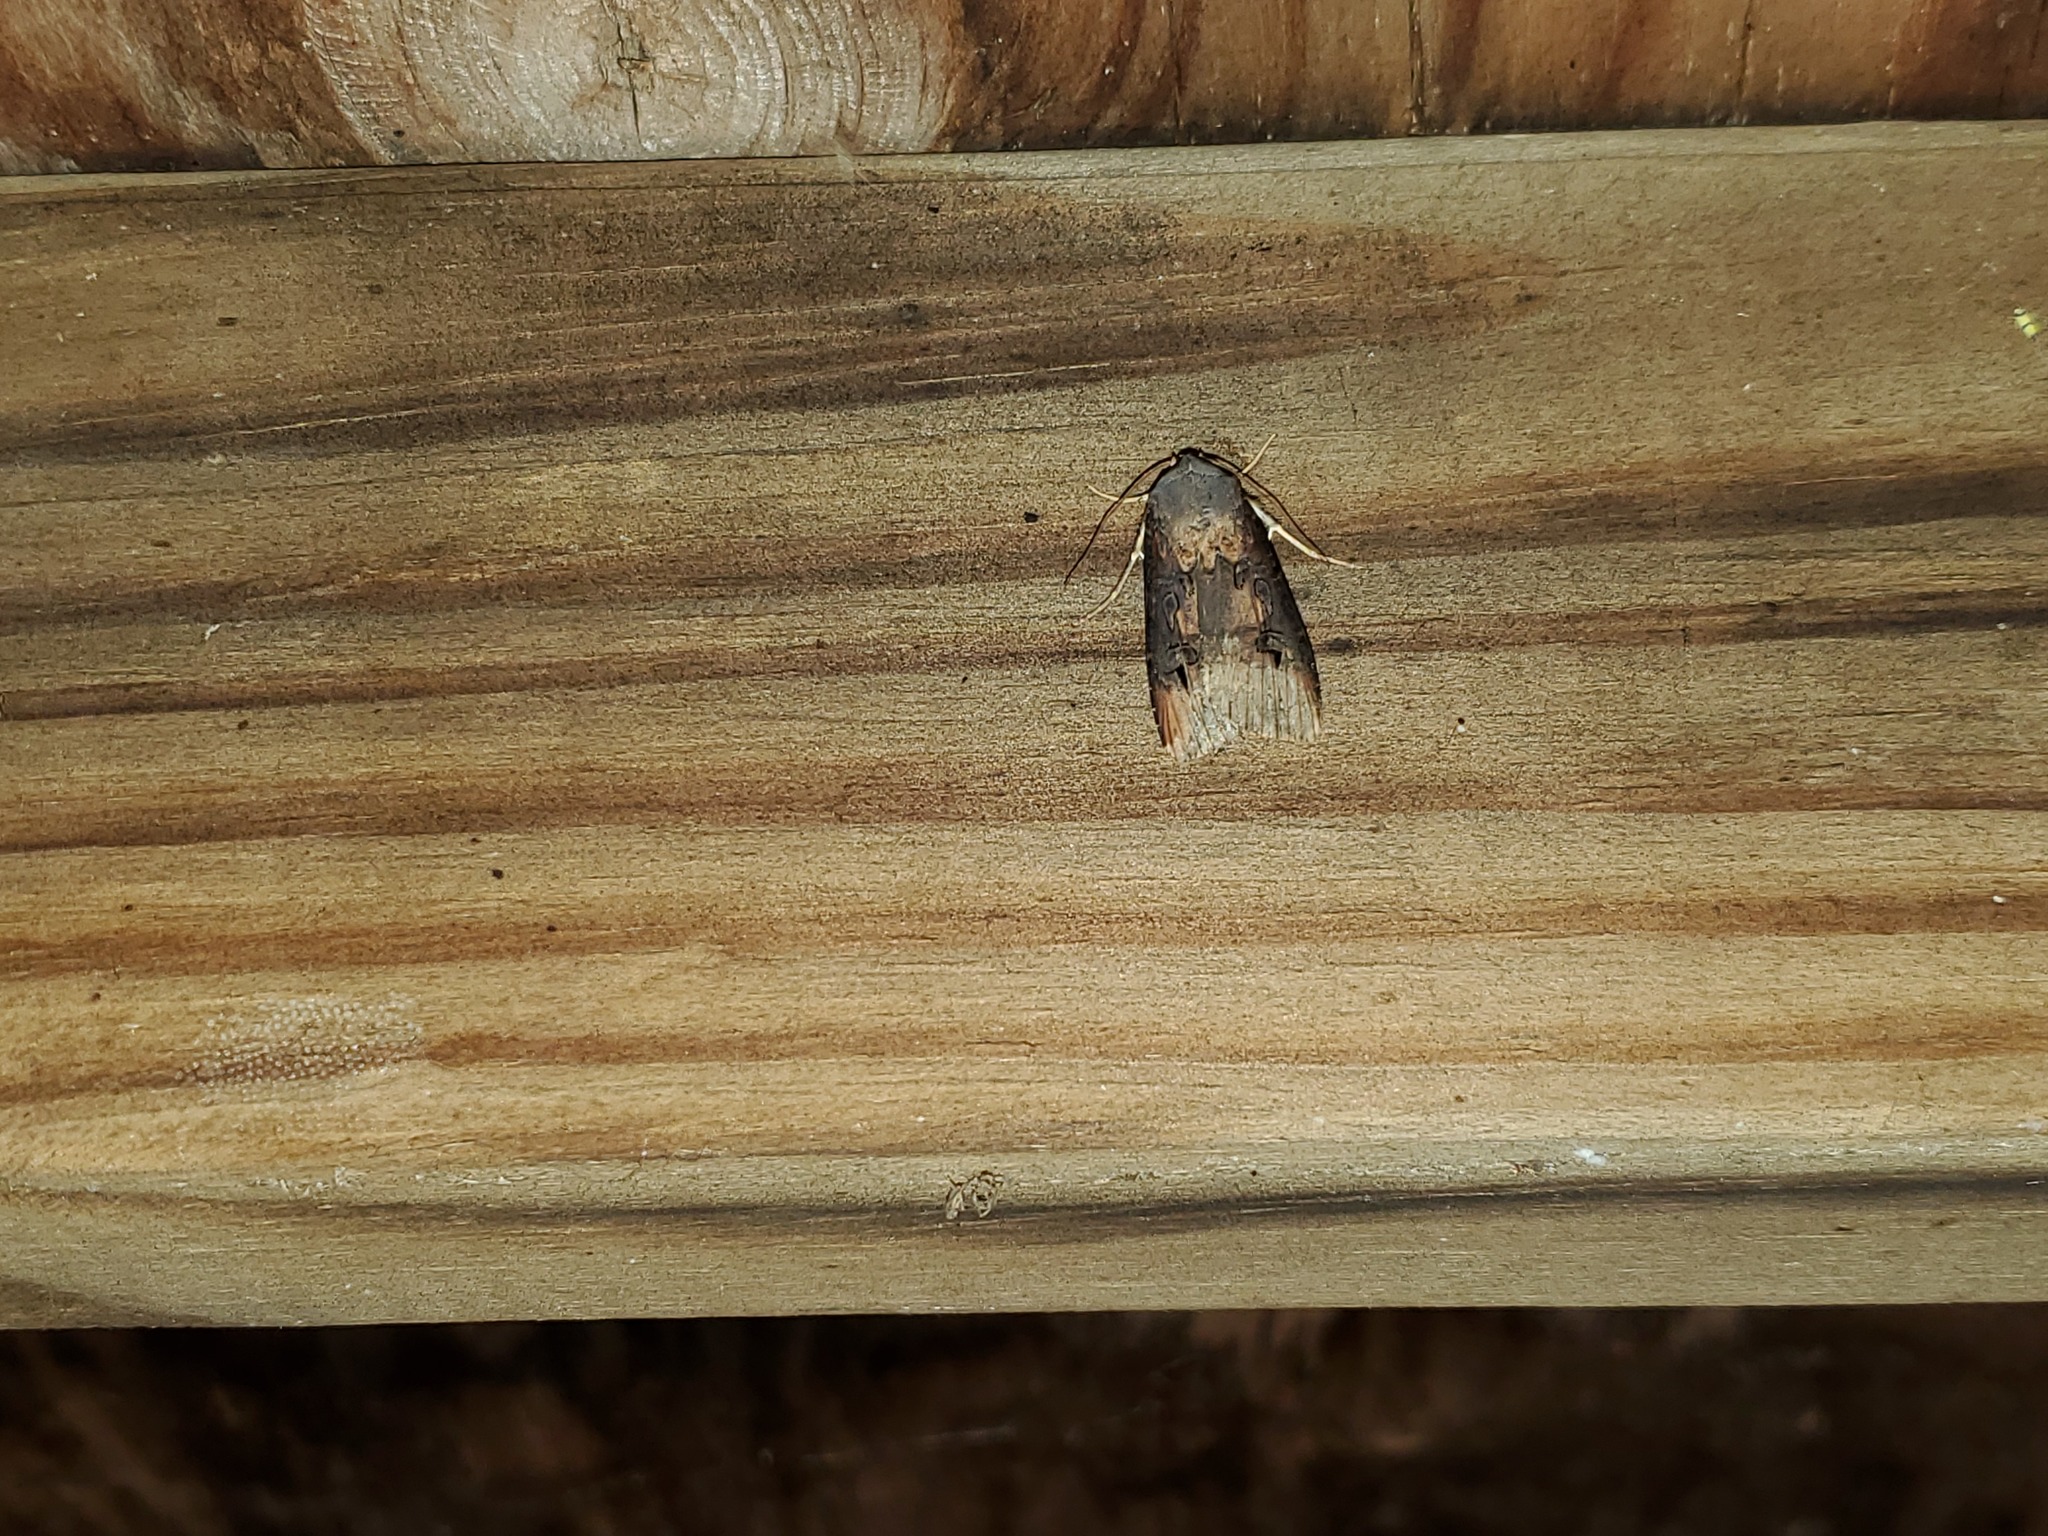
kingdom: Animalia
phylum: Arthropoda
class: Insecta
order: Lepidoptera
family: Noctuidae
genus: Agrotis
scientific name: Agrotis ipsilon
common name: Dark sword-grass
